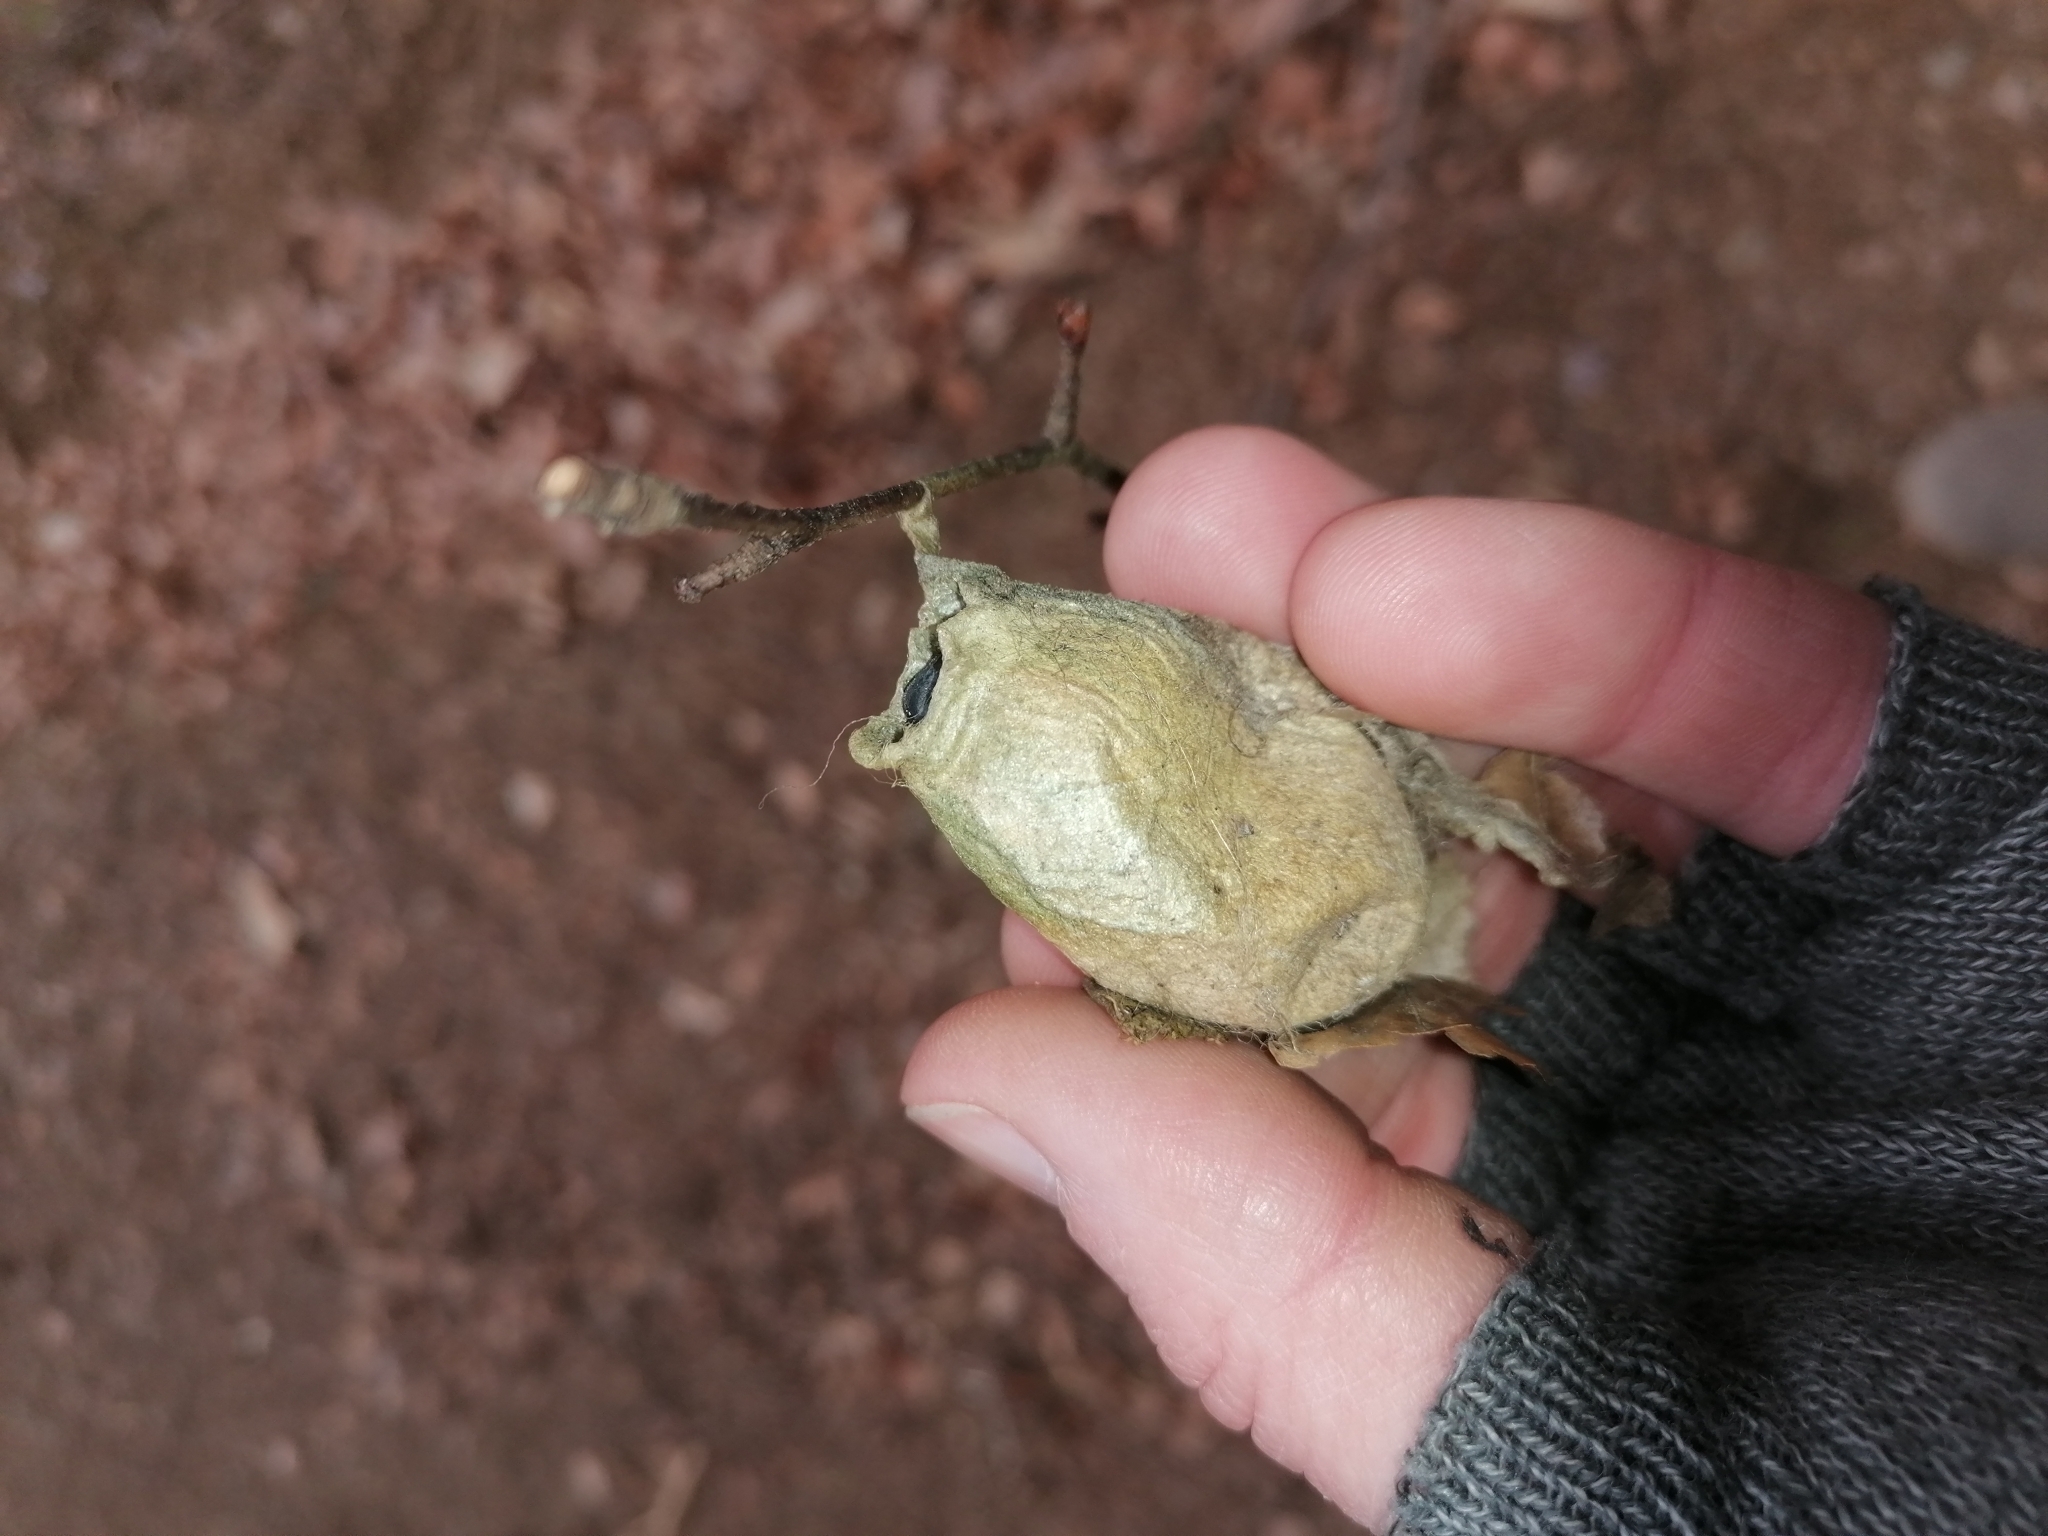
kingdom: Animalia
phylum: Arthropoda
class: Insecta
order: Lepidoptera
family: Saturniidae
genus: Antheraea
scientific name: Antheraea yamamai
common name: Japanese oak silk moth
